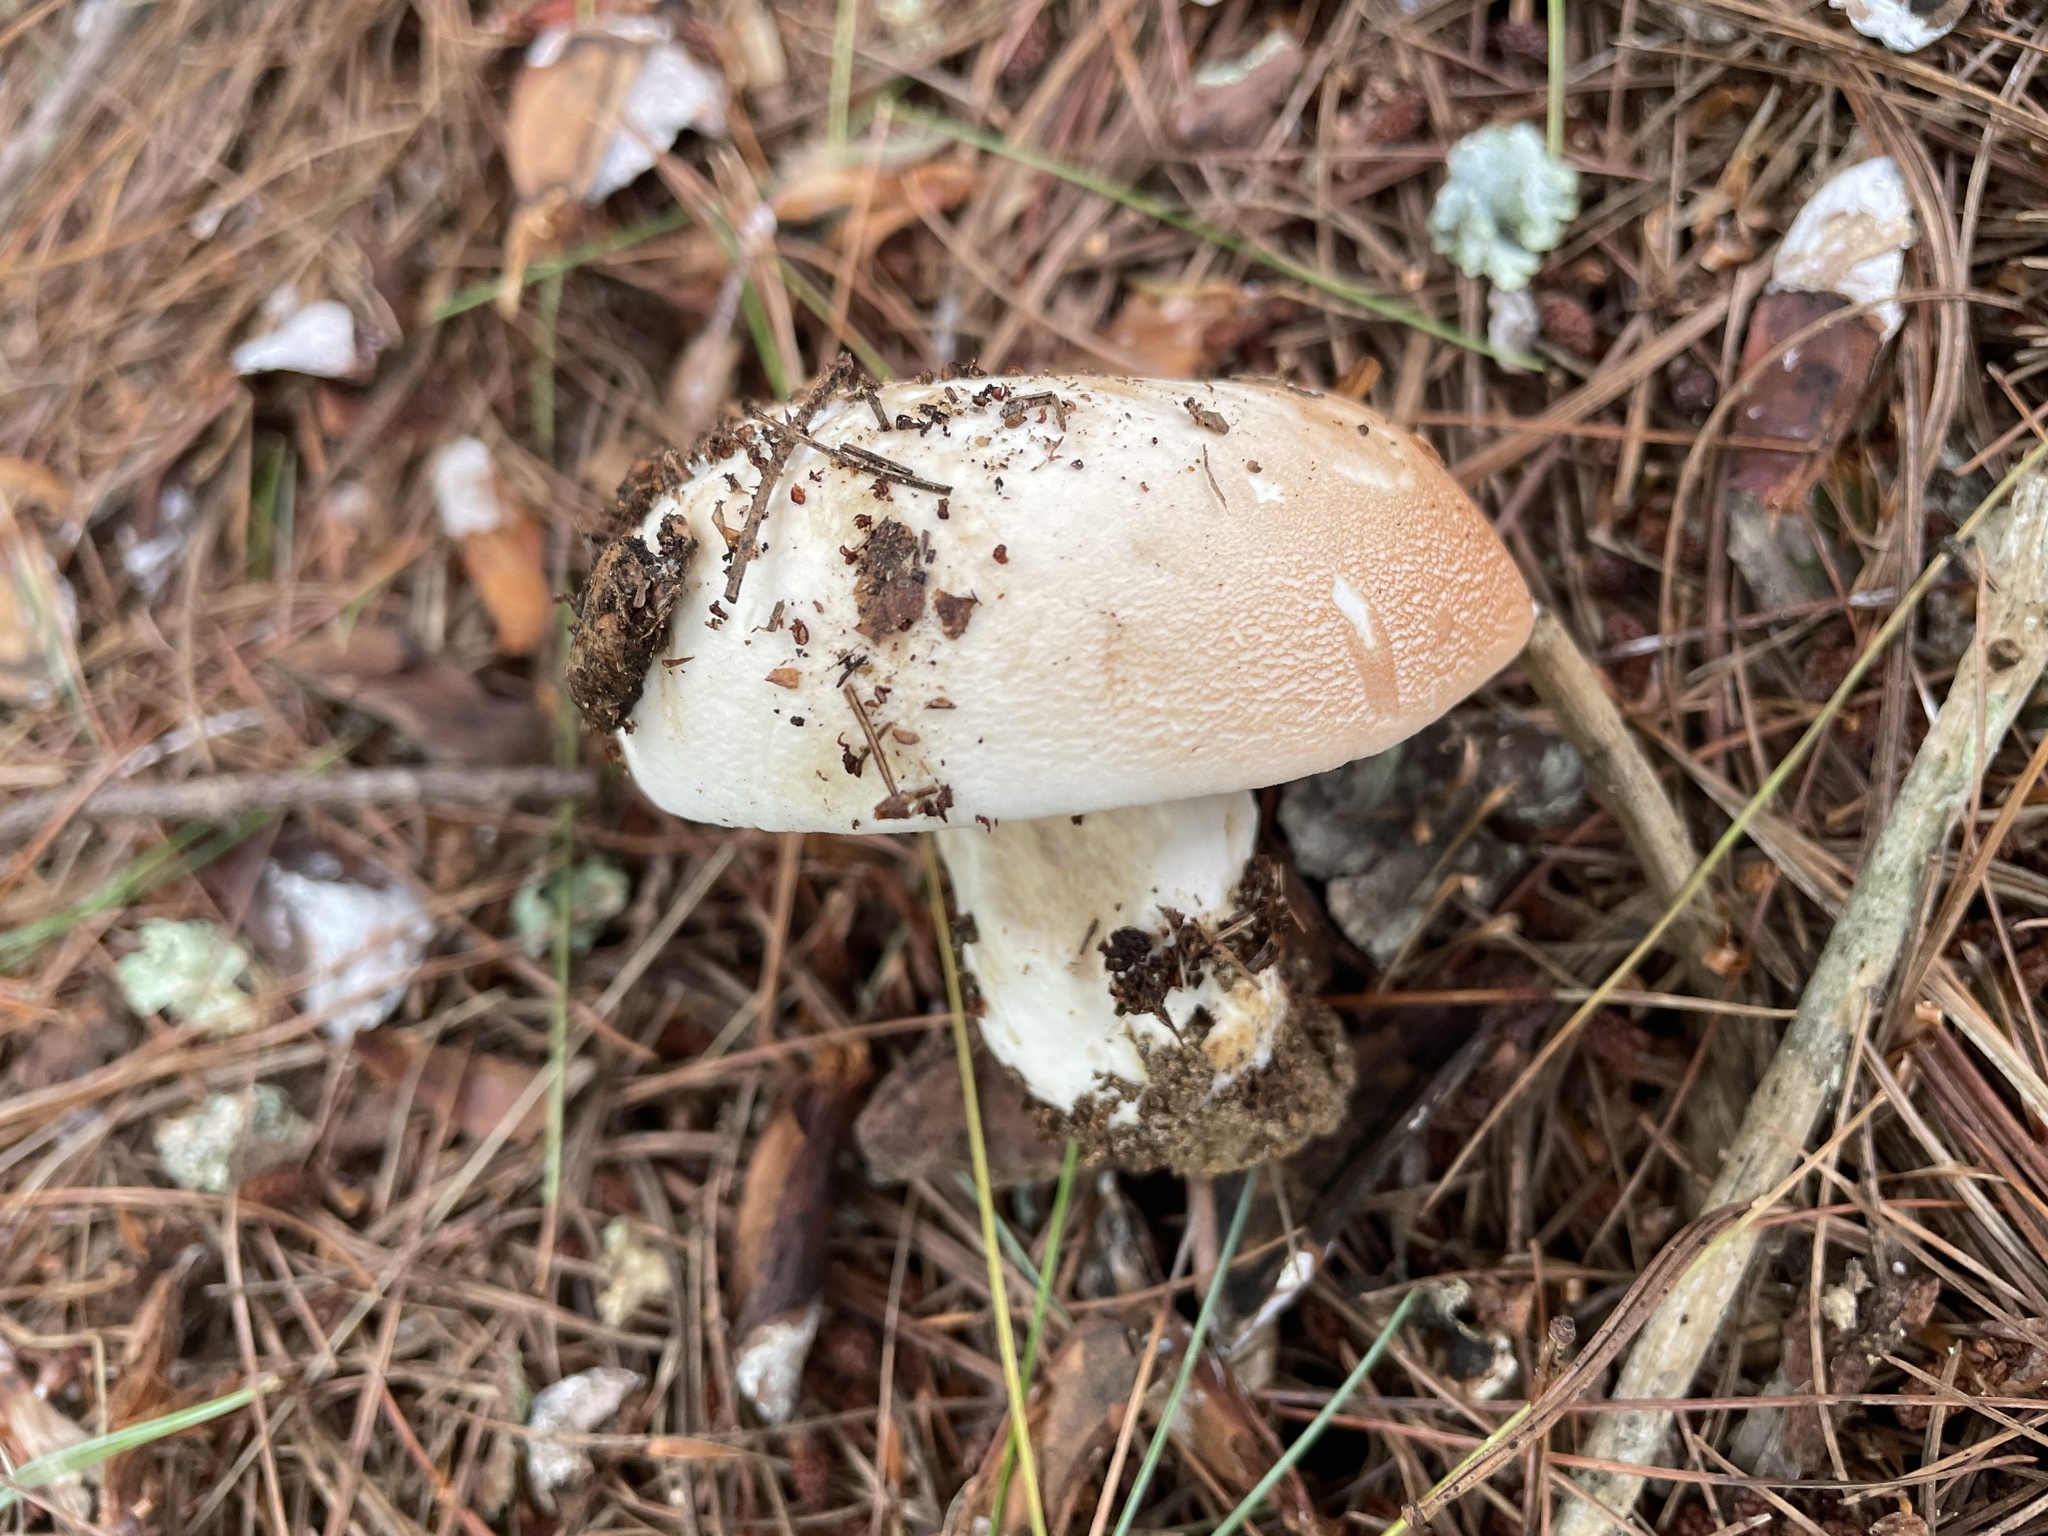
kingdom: Fungi
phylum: Basidiomycota
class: Agaricomycetes
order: Russulales
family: Russulaceae
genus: Russula
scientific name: Russula compacta
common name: Fishbiscuit russula
